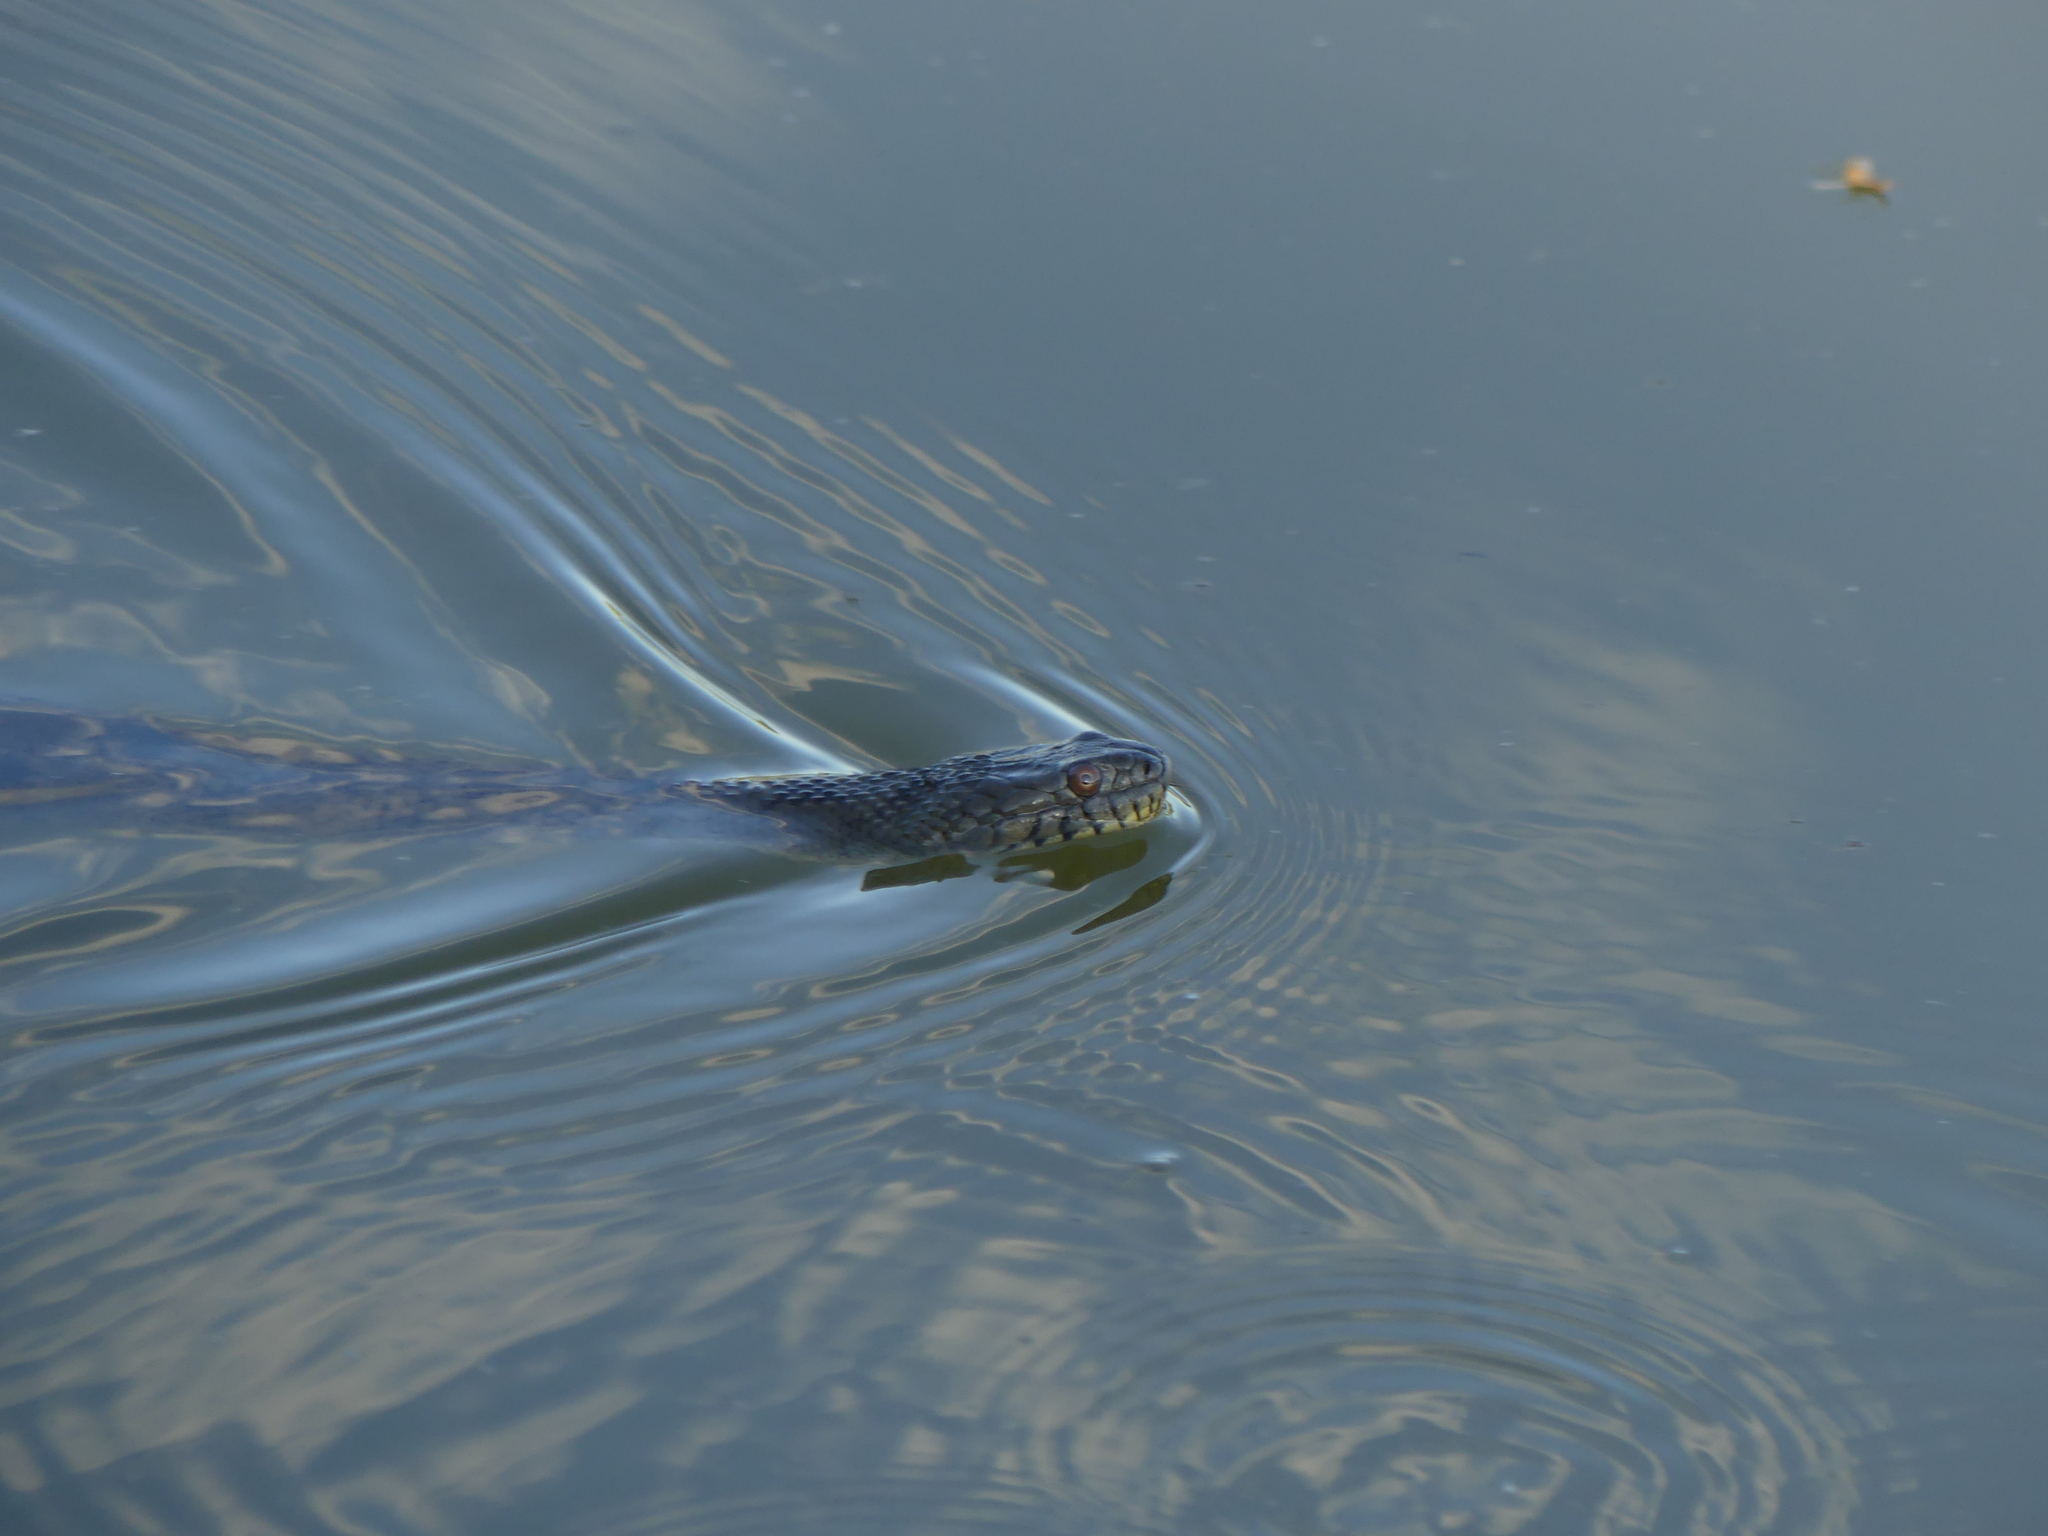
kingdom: Animalia
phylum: Chordata
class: Squamata
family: Colubridae
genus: Nerodia
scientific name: Nerodia rhombifer
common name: Diamondback water snake
